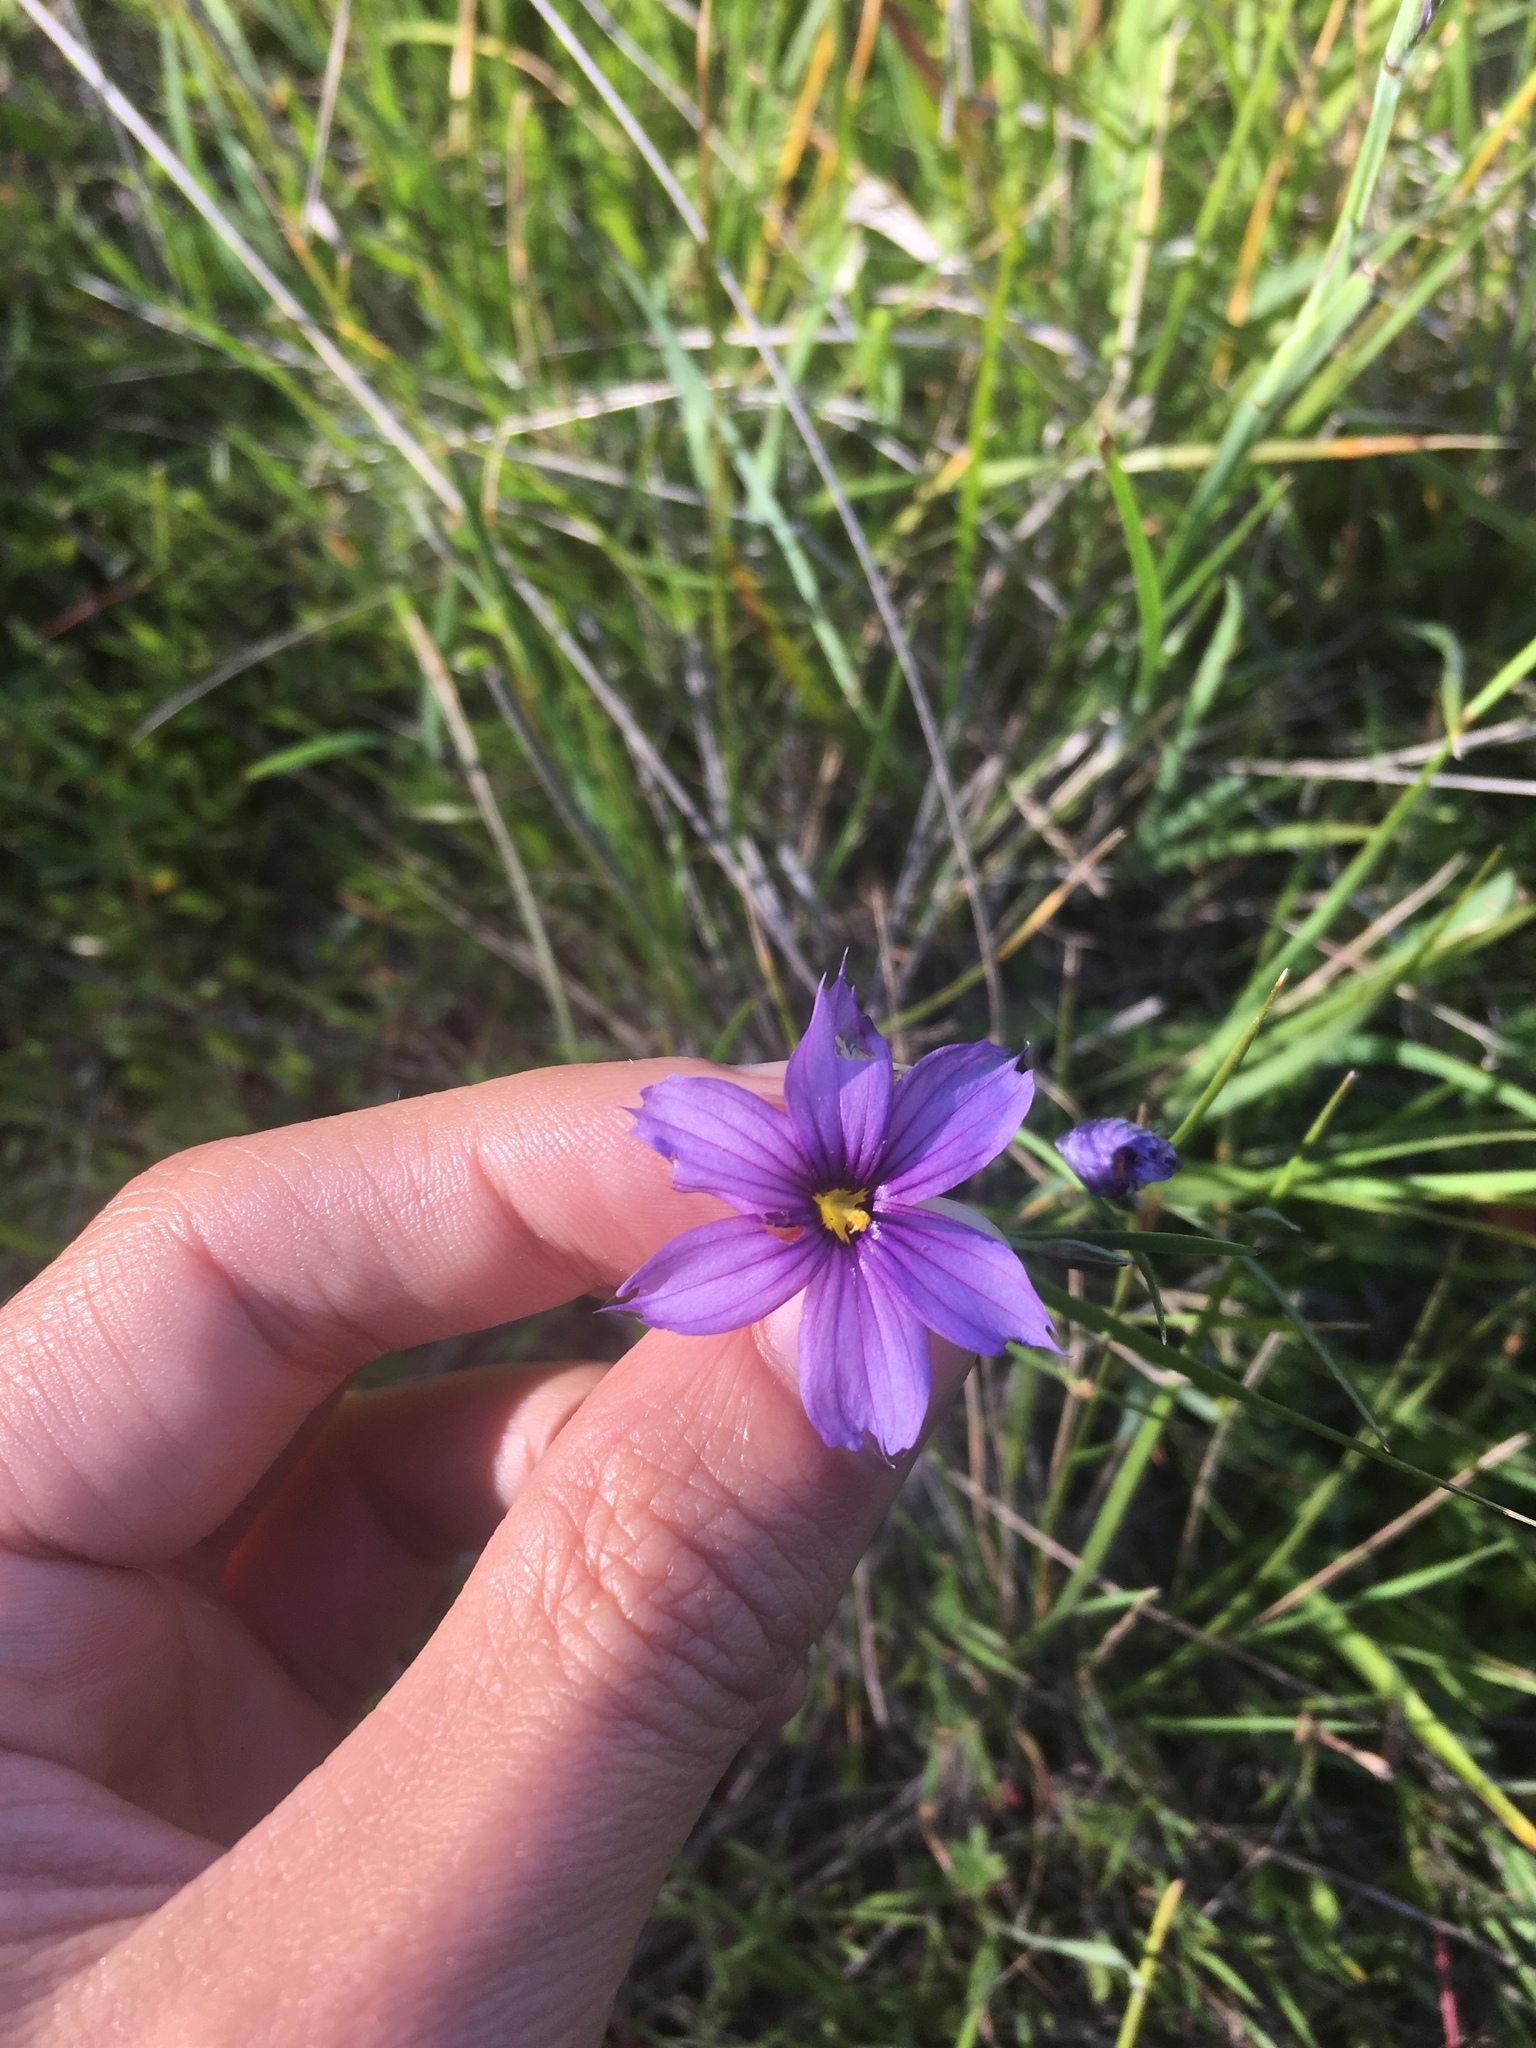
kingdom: Plantae
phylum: Tracheophyta
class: Liliopsida
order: Asparagales
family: Iridaceae
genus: Sisyrinchium
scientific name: Sisyrinchium bellum
